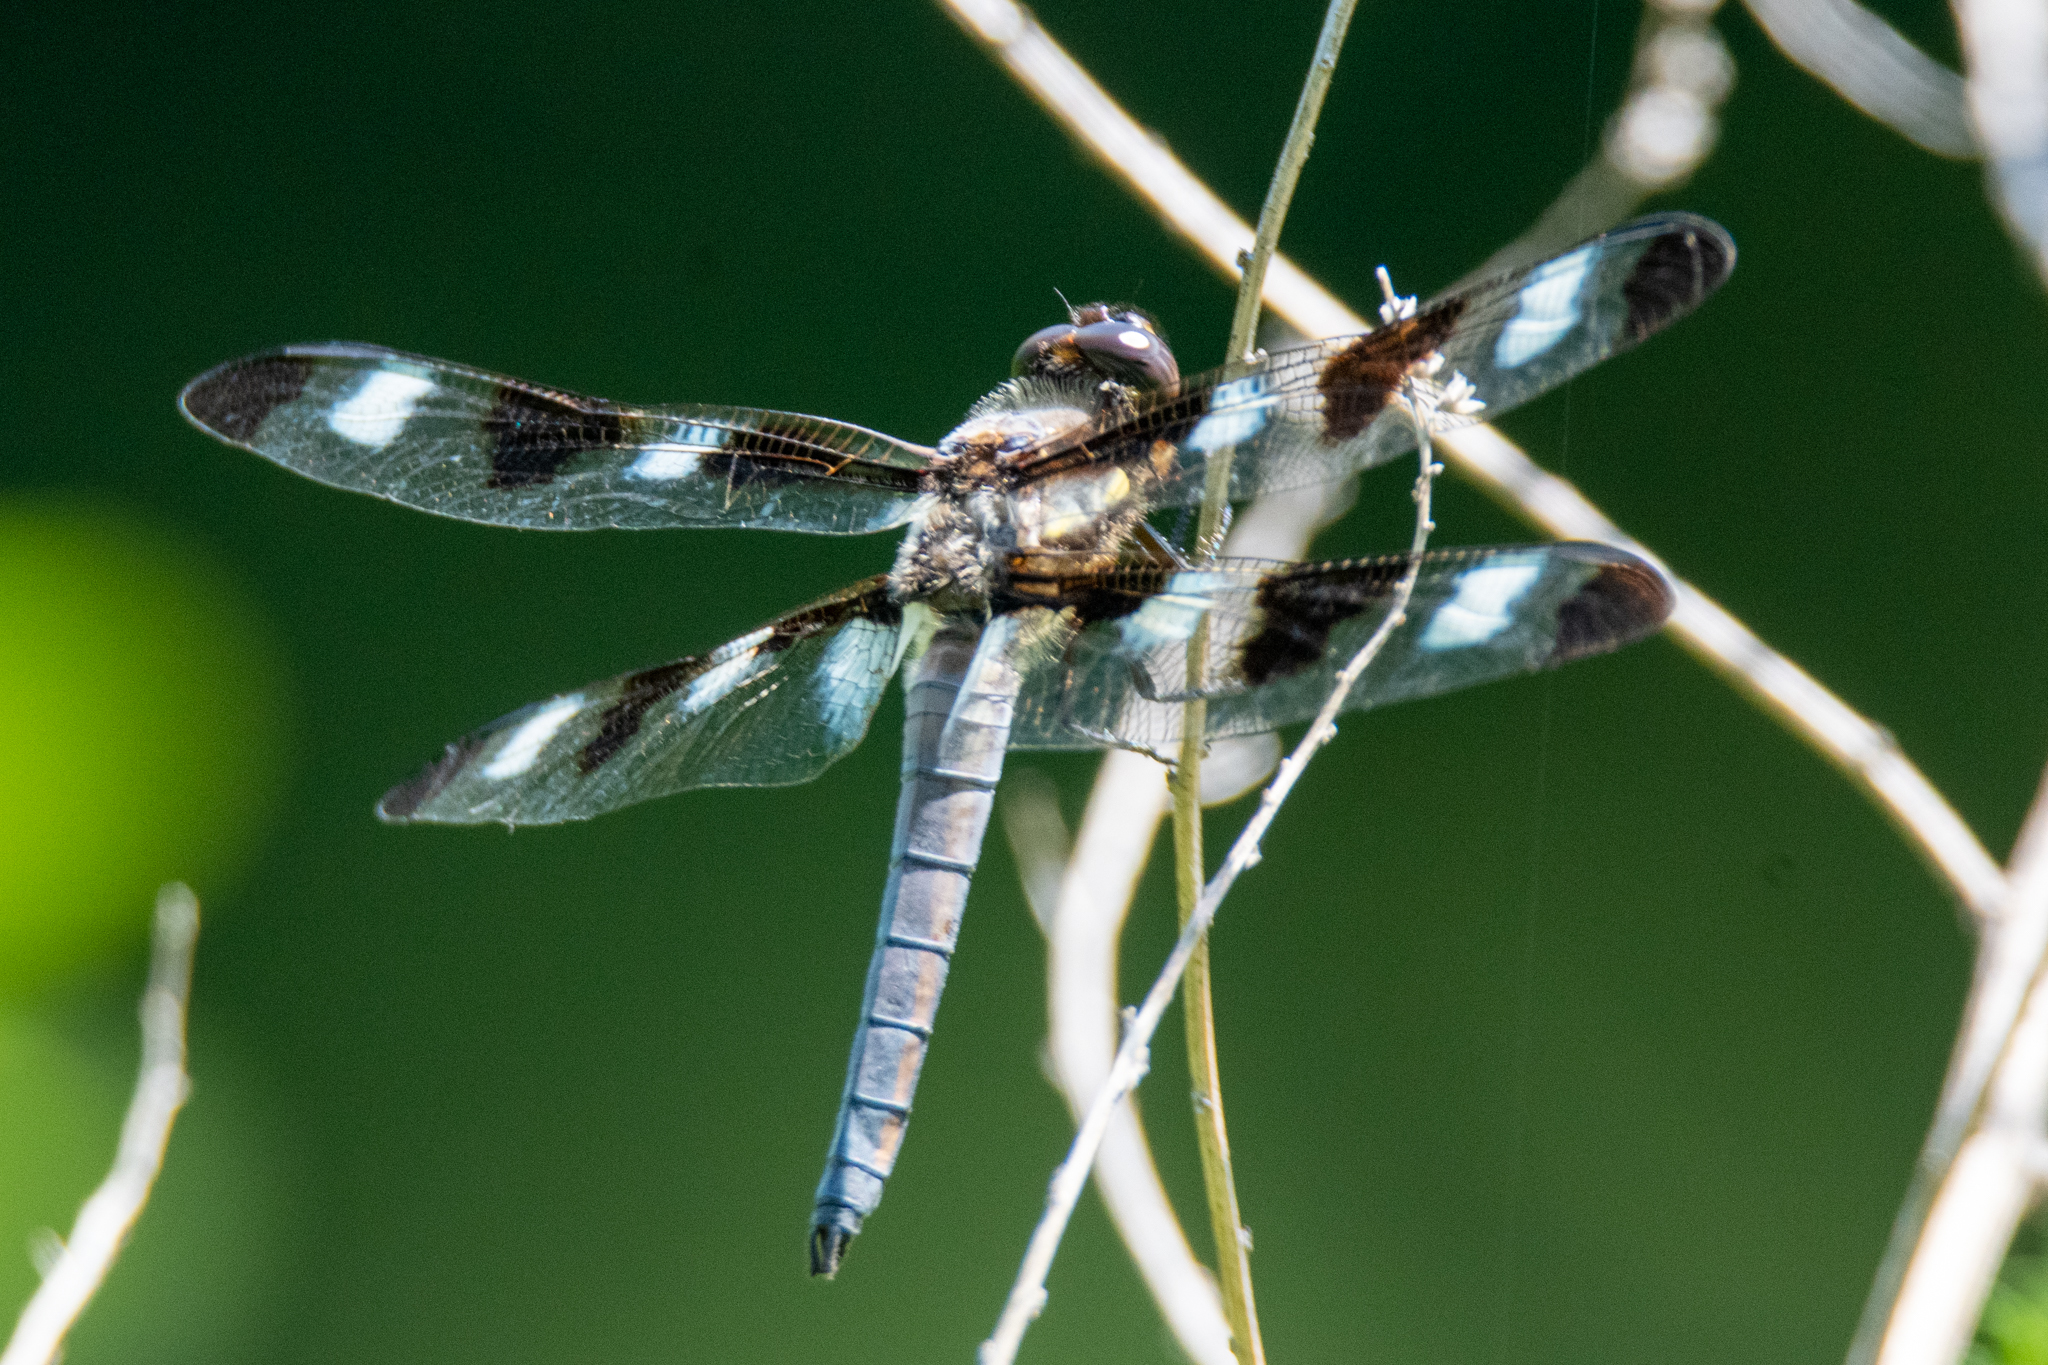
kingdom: Animalia
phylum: Arthropoda
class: Insecta
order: Odonata
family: Libellulidae
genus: Libellula
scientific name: Libellula pulchella
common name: Twelve-spotted skimmer
